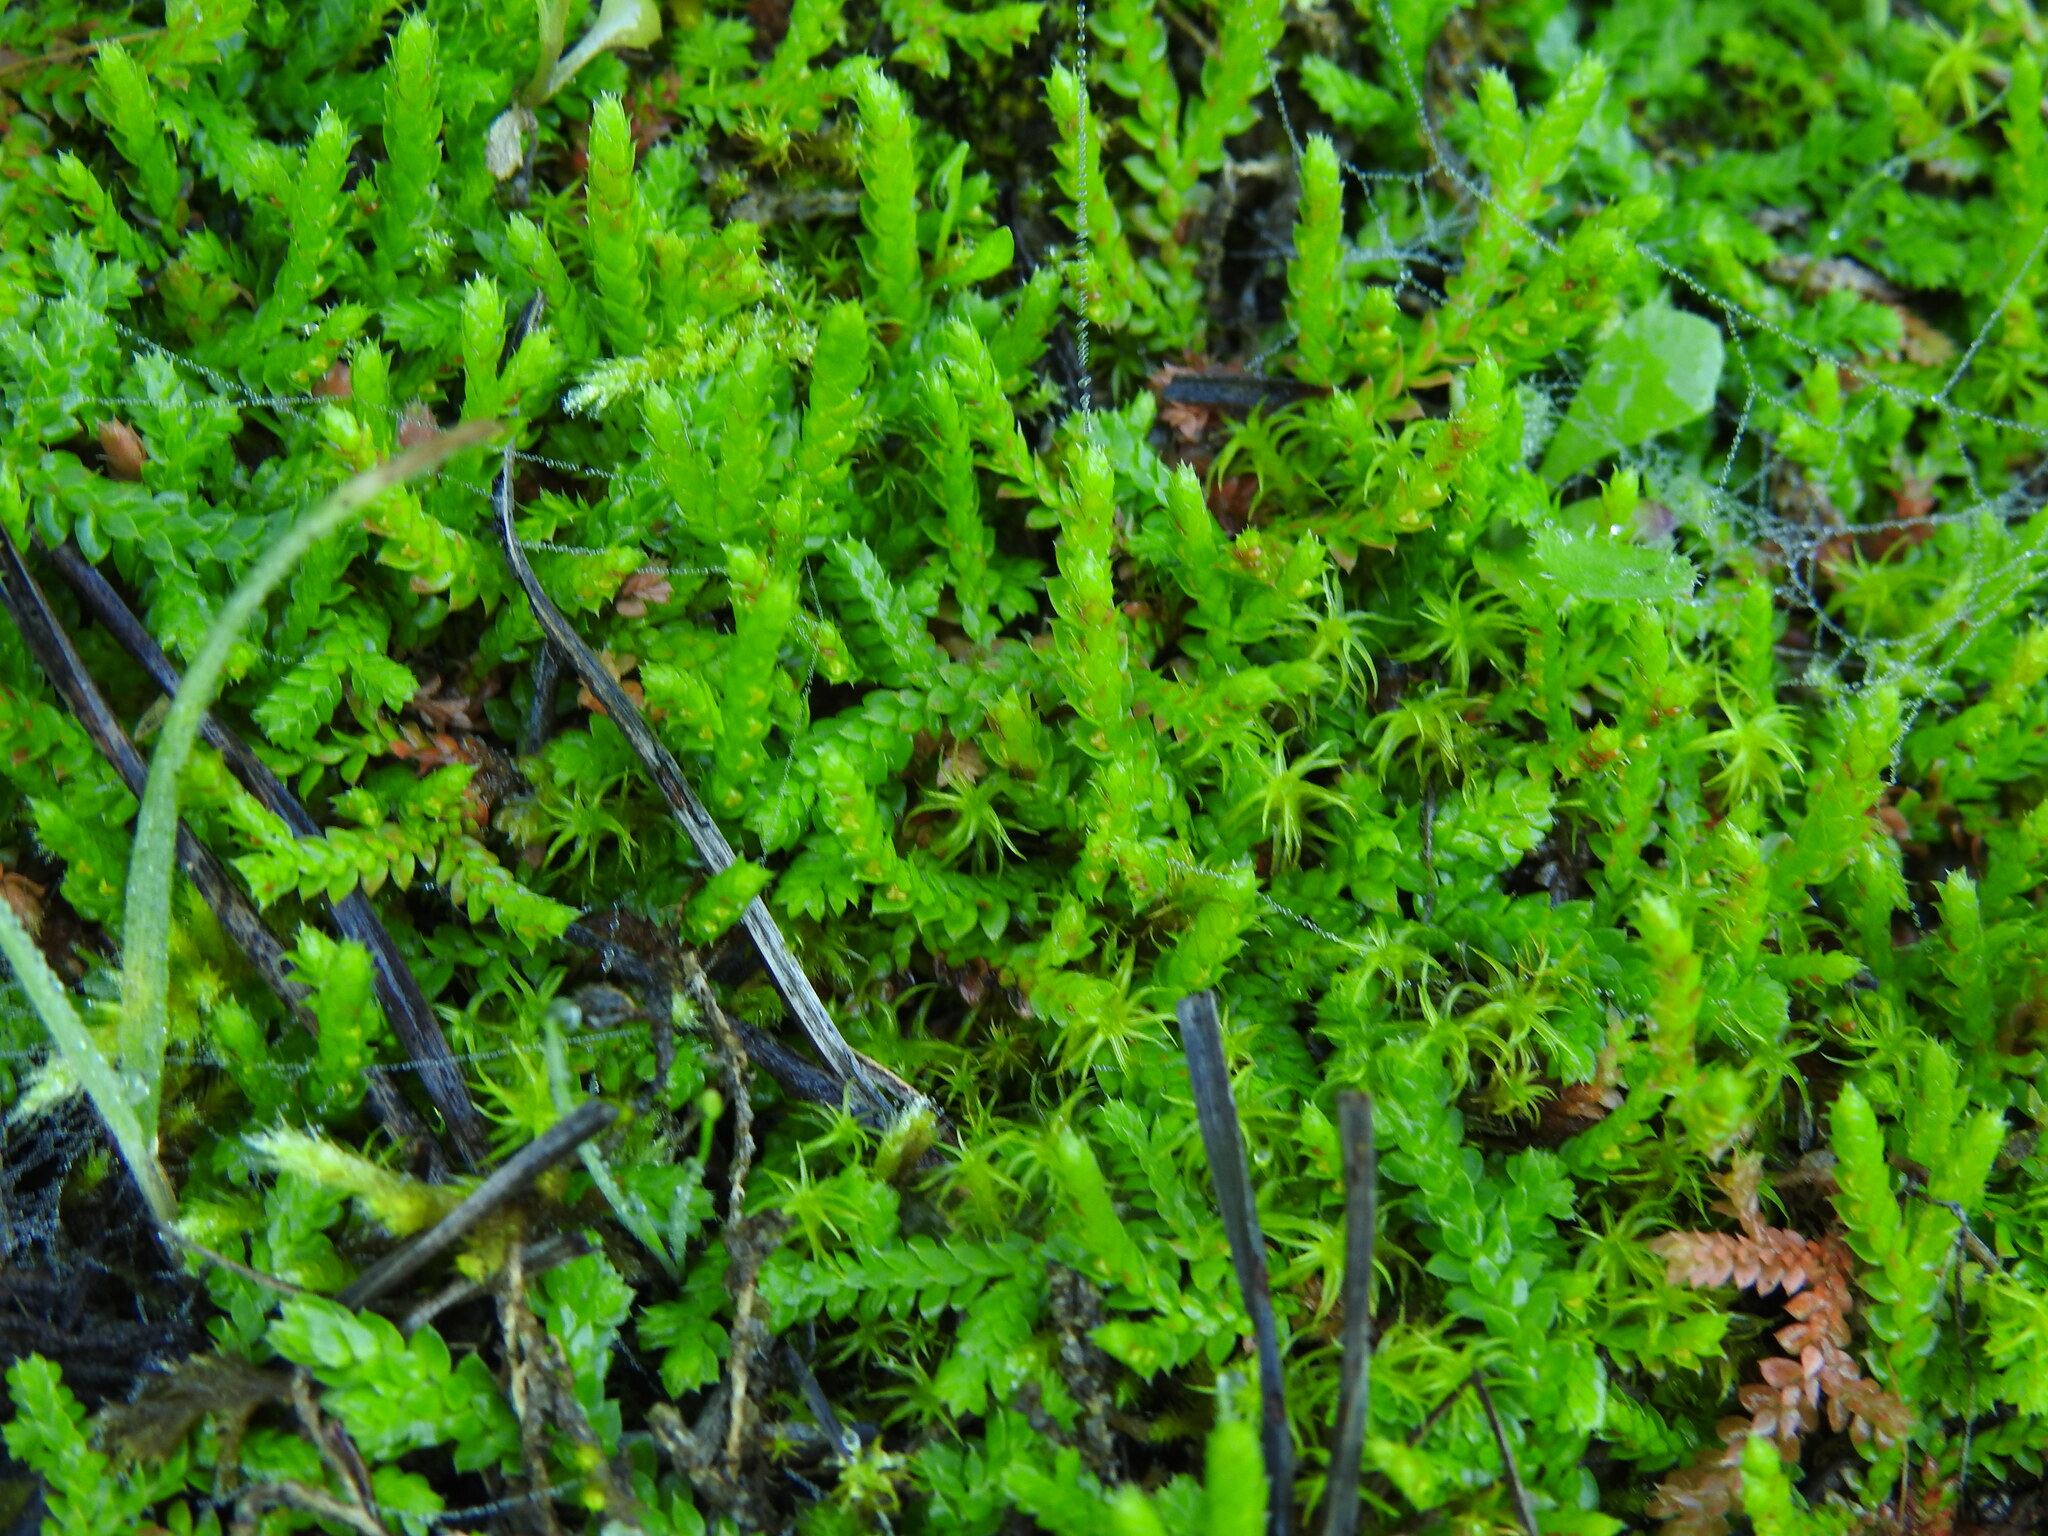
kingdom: Plantae
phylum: Tracheophyta
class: Lycopodiopsida
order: Selaginellales
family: Selaginellaceae
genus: Selaginella
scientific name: Selaginella denticulata
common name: Toothed-leaved clubmoss
